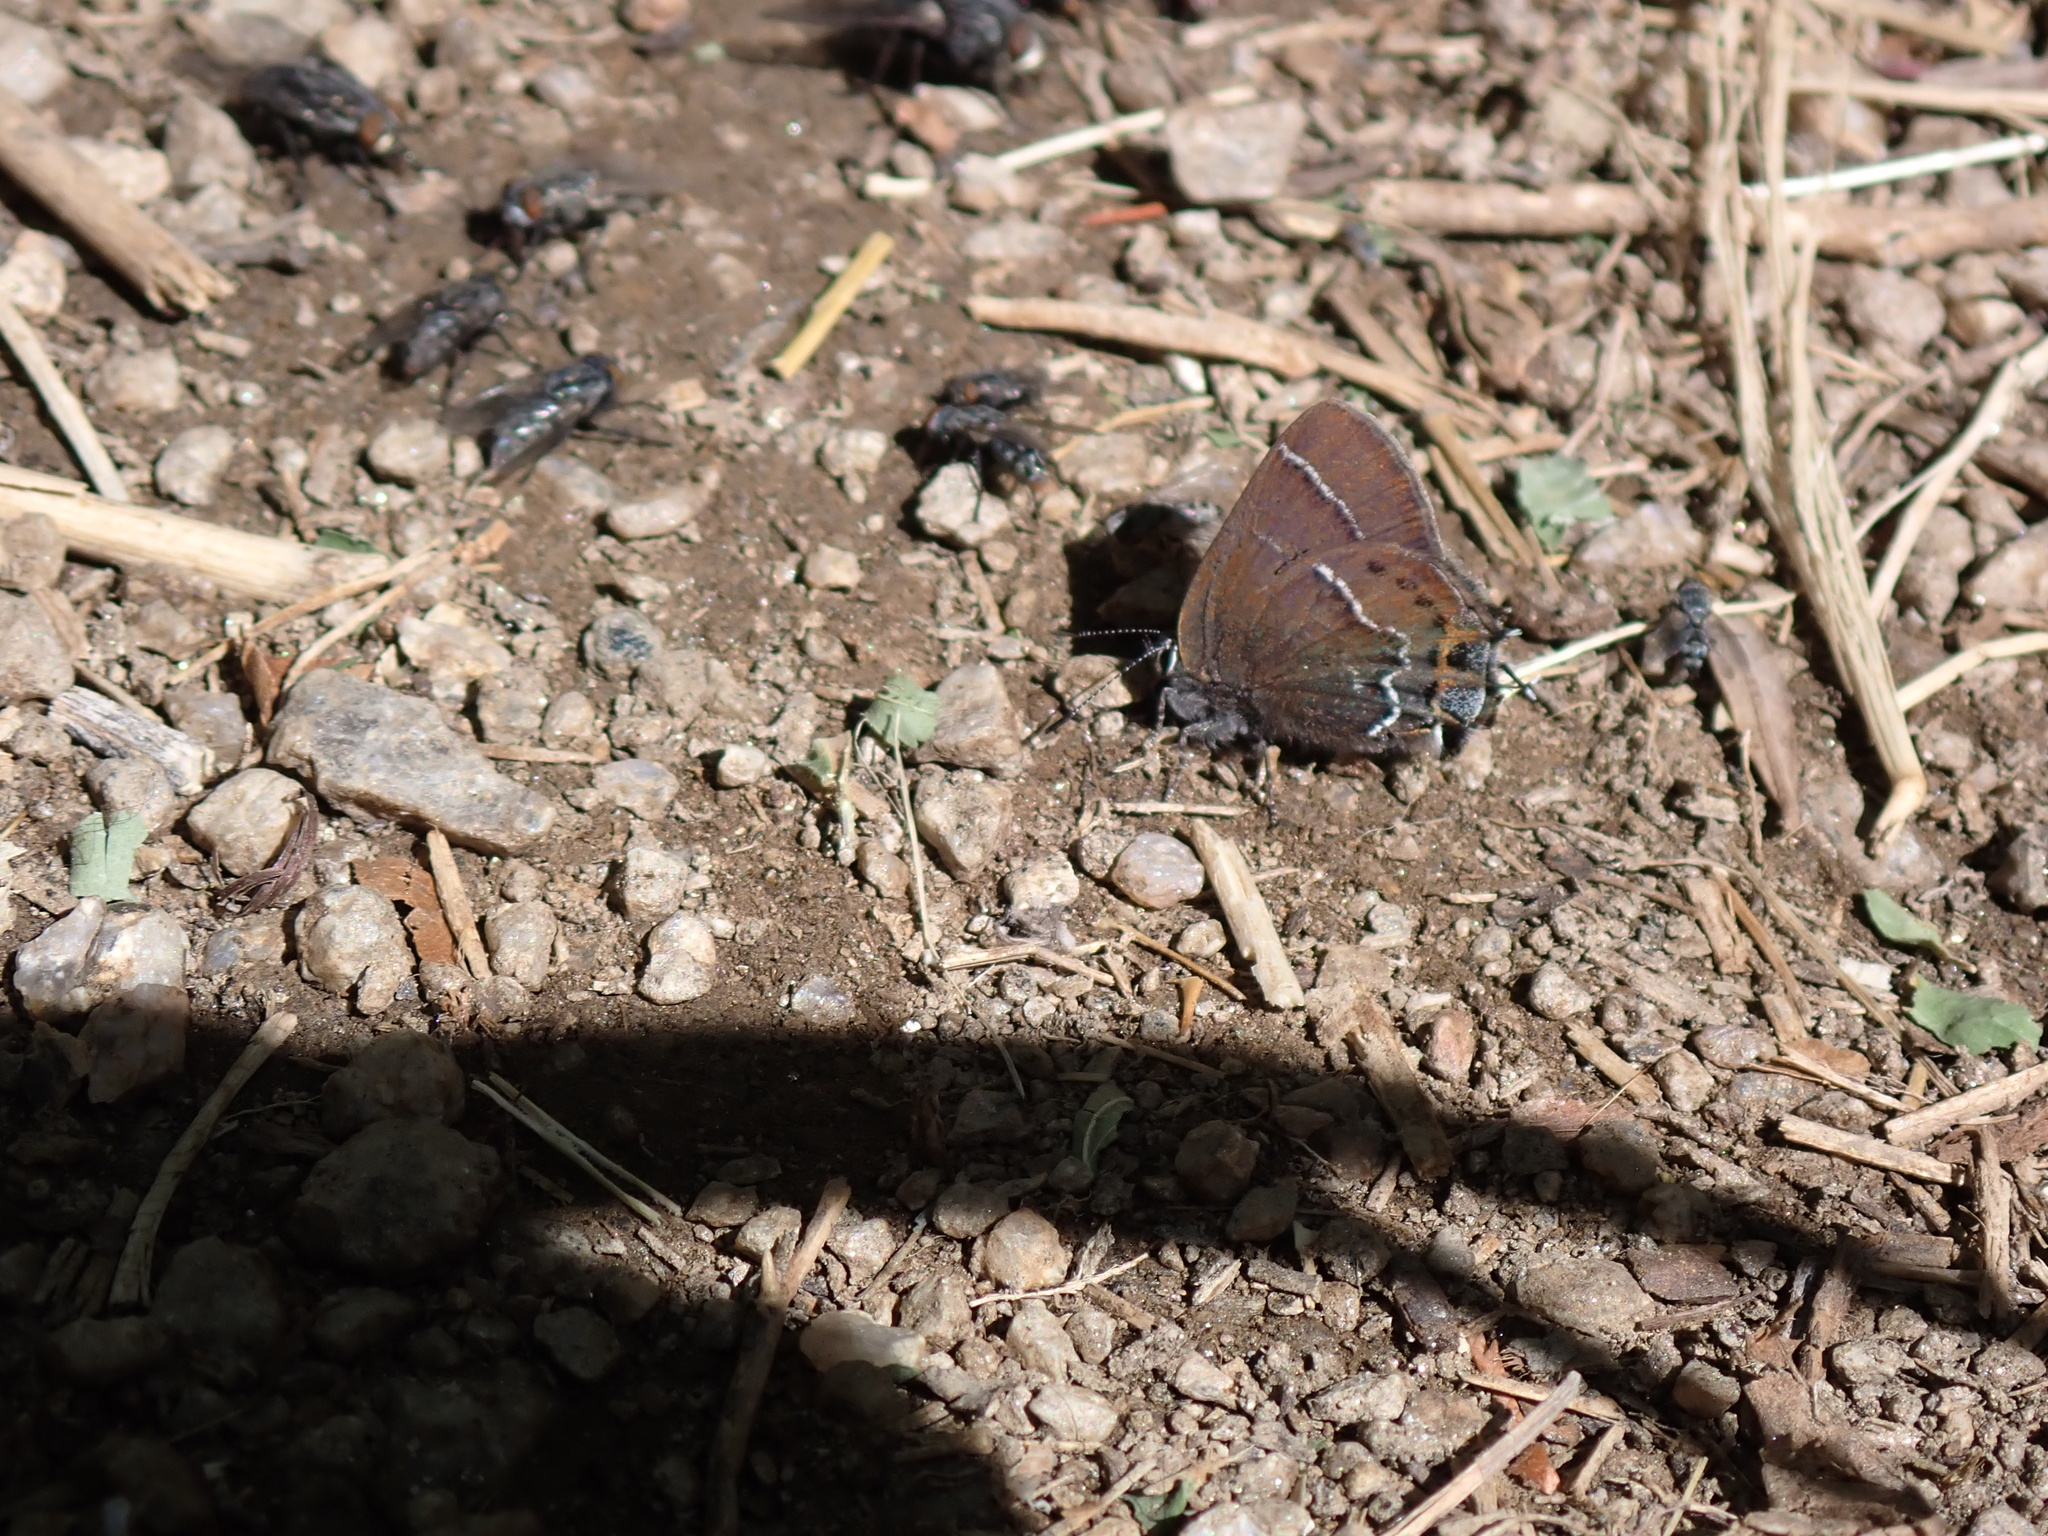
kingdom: Animalia
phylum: Arthropoda
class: Insecta
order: Lepidoptera
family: Lycaenidae
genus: Mitoura
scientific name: Mitoura spinetorum
